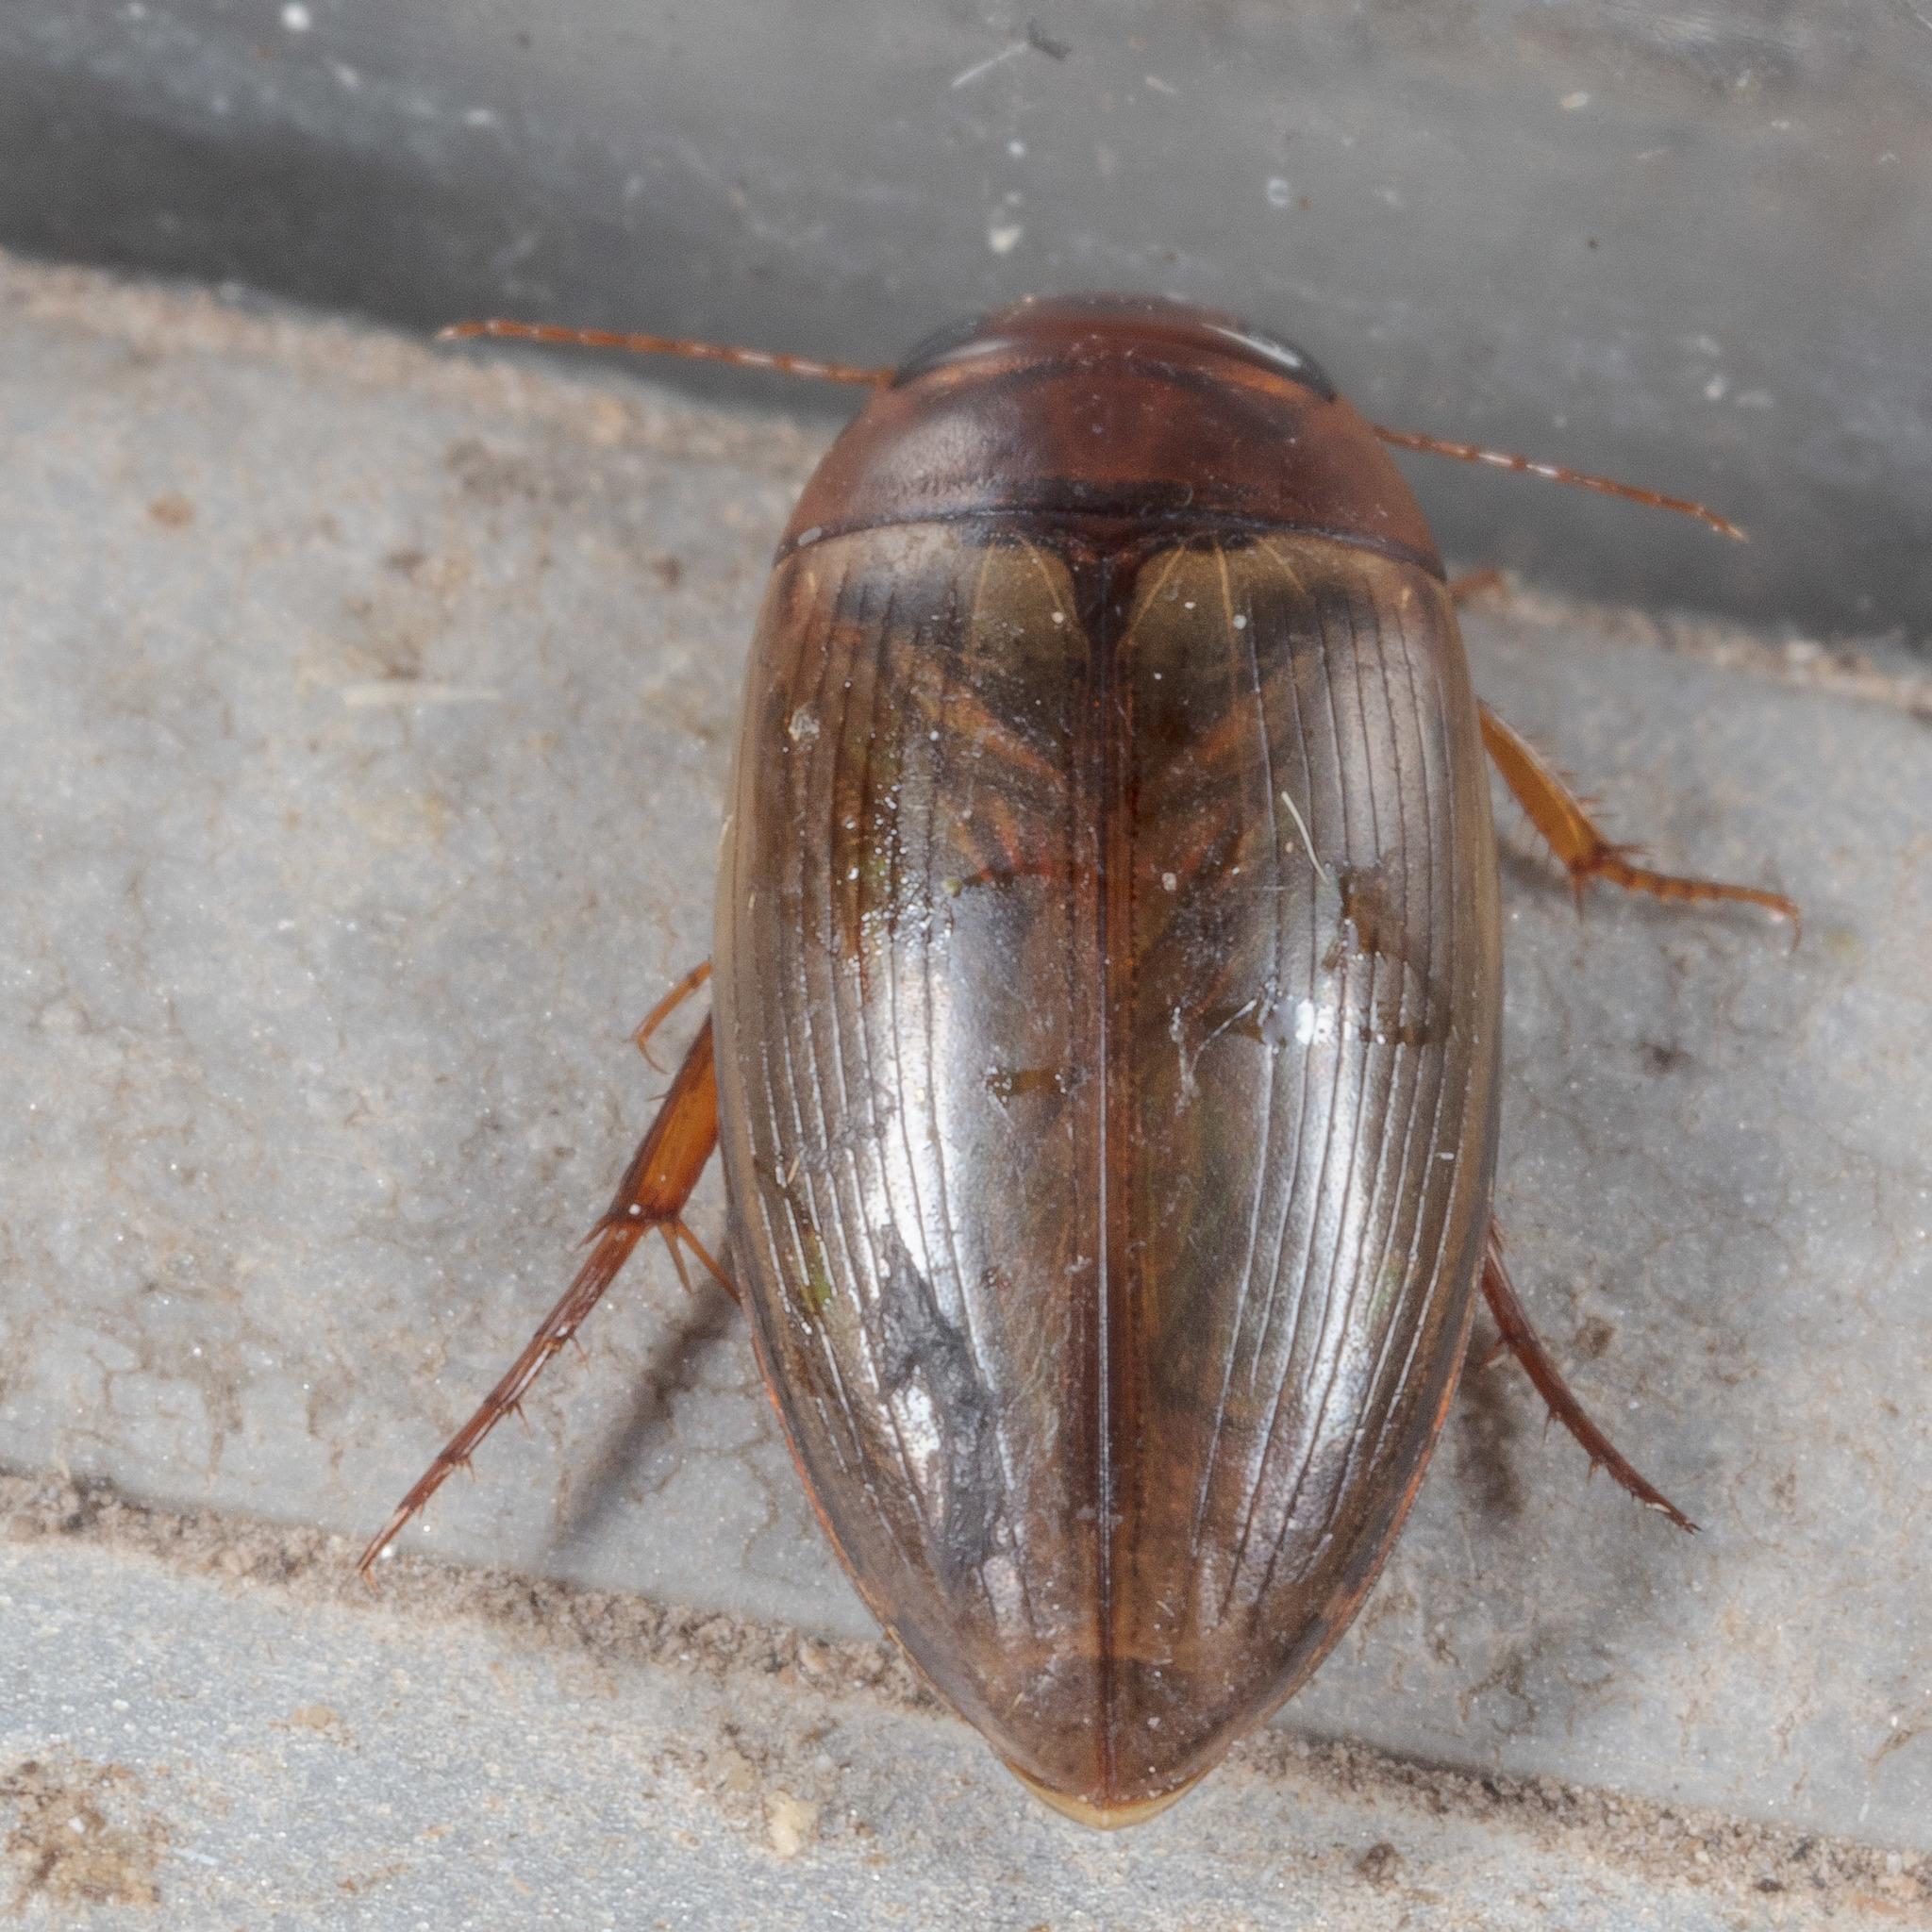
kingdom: Animalia
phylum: Arthropoda
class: Insecta
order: Coleoptera
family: Dytiscidae
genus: Copelatus
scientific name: Copelatus chevrolati
